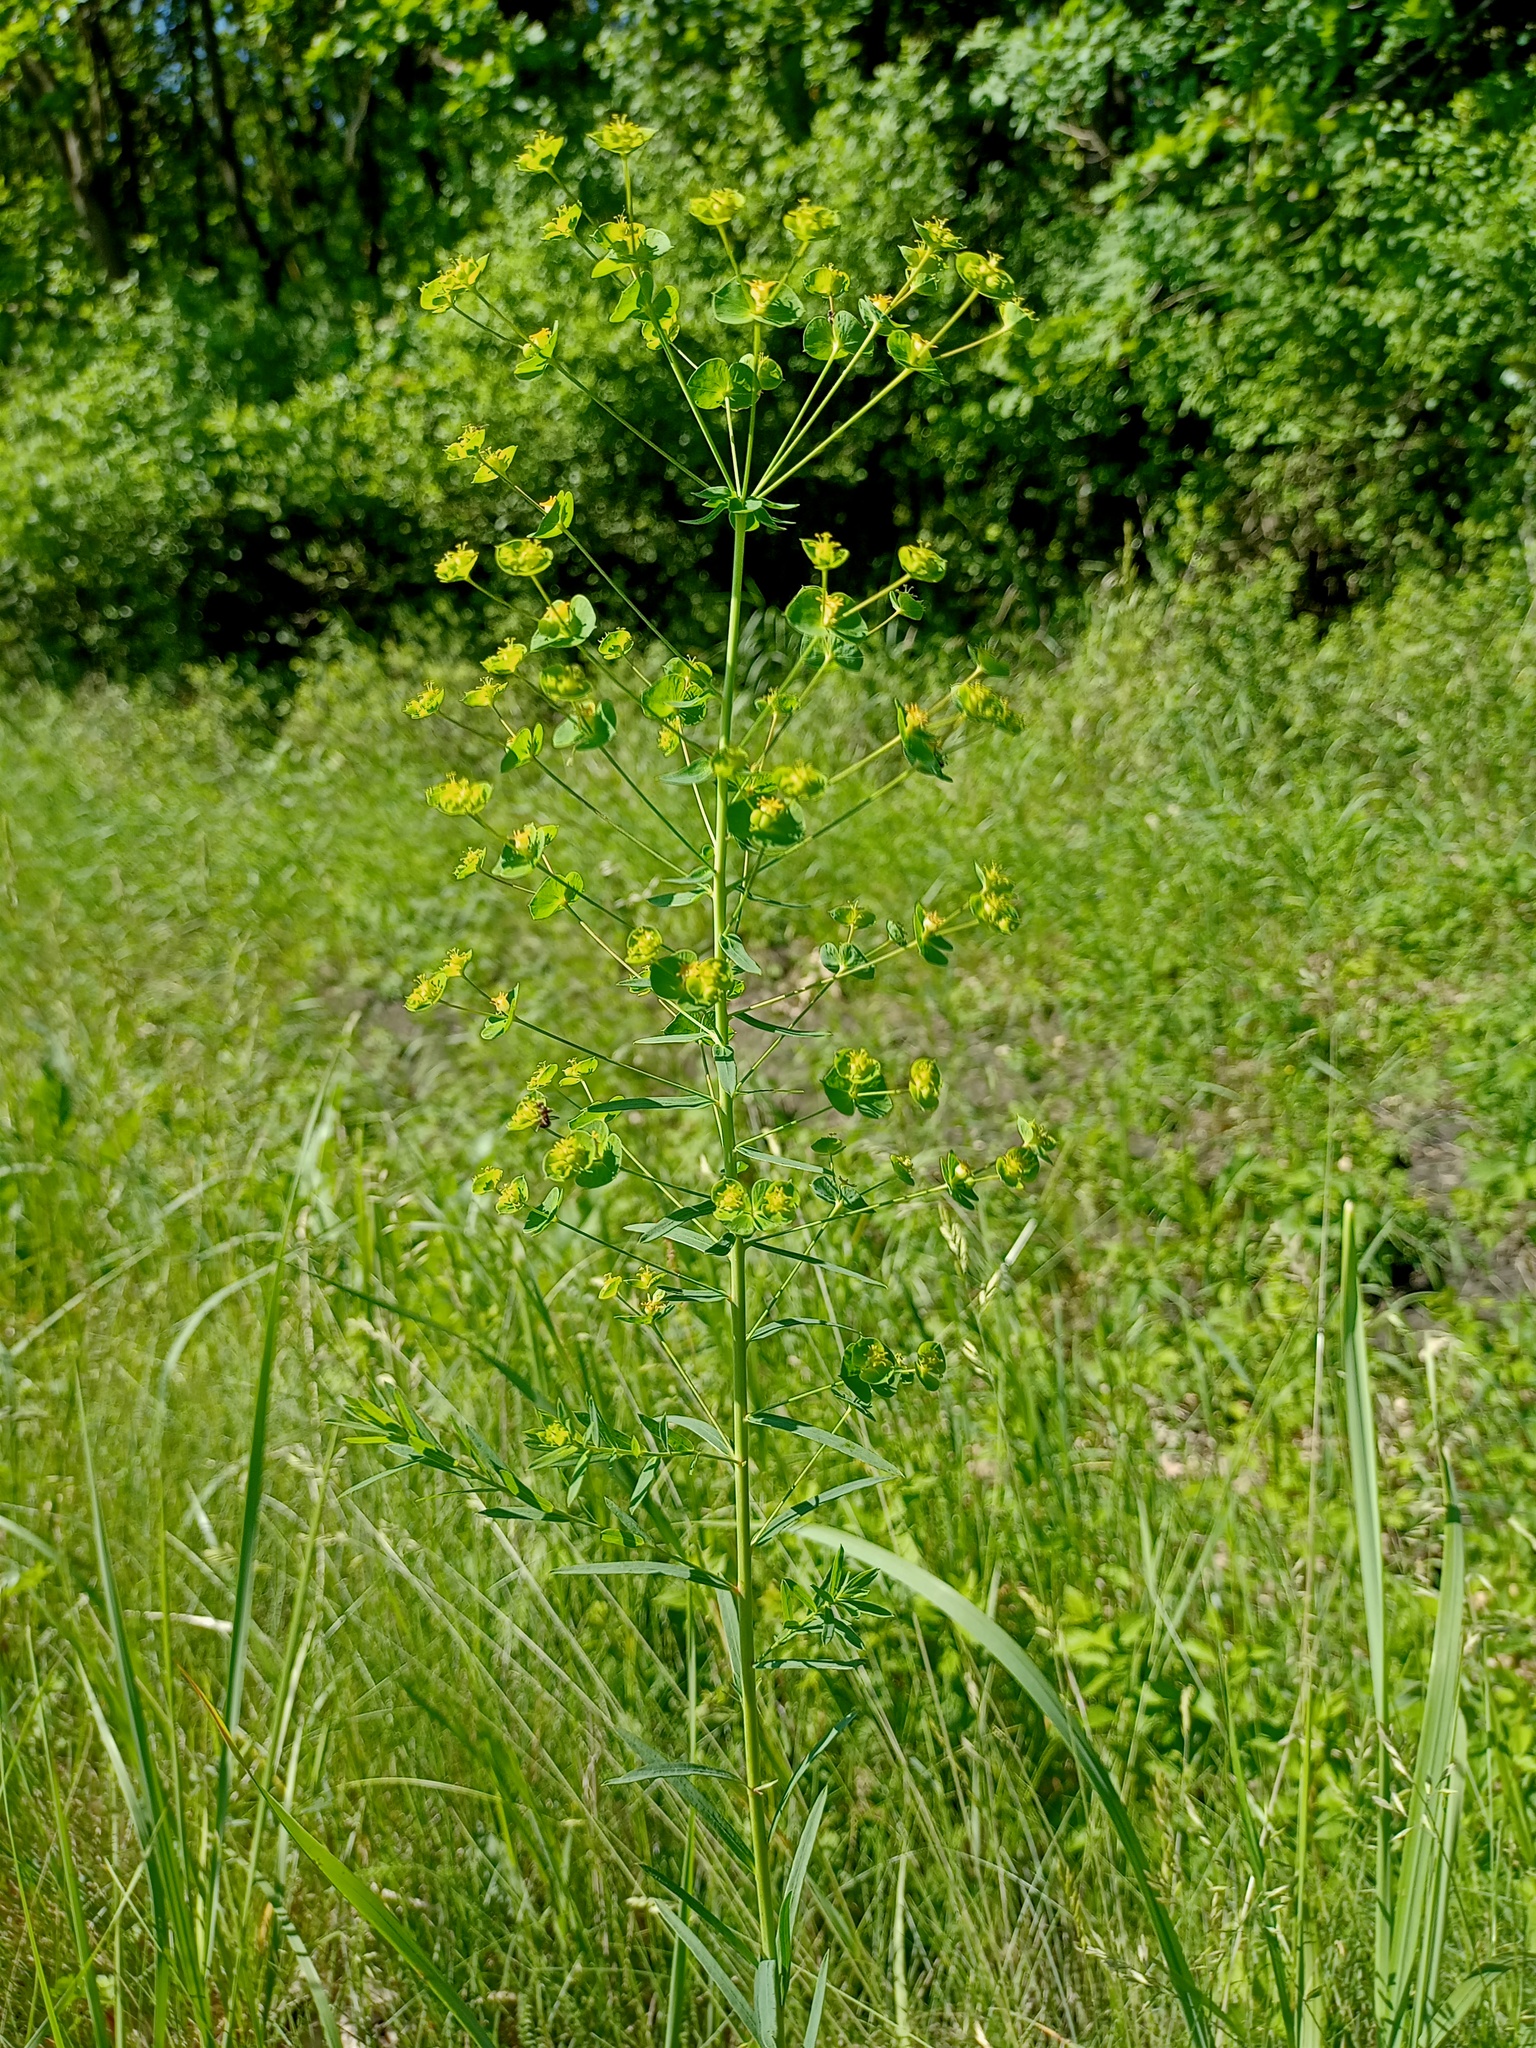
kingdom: Plantae
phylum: Tracheophyta
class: Magnoliopsida
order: Malpighiales
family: Euphorbiaceae
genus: Euphorbia
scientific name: Euphorbia virgata
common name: Leafy spurge
